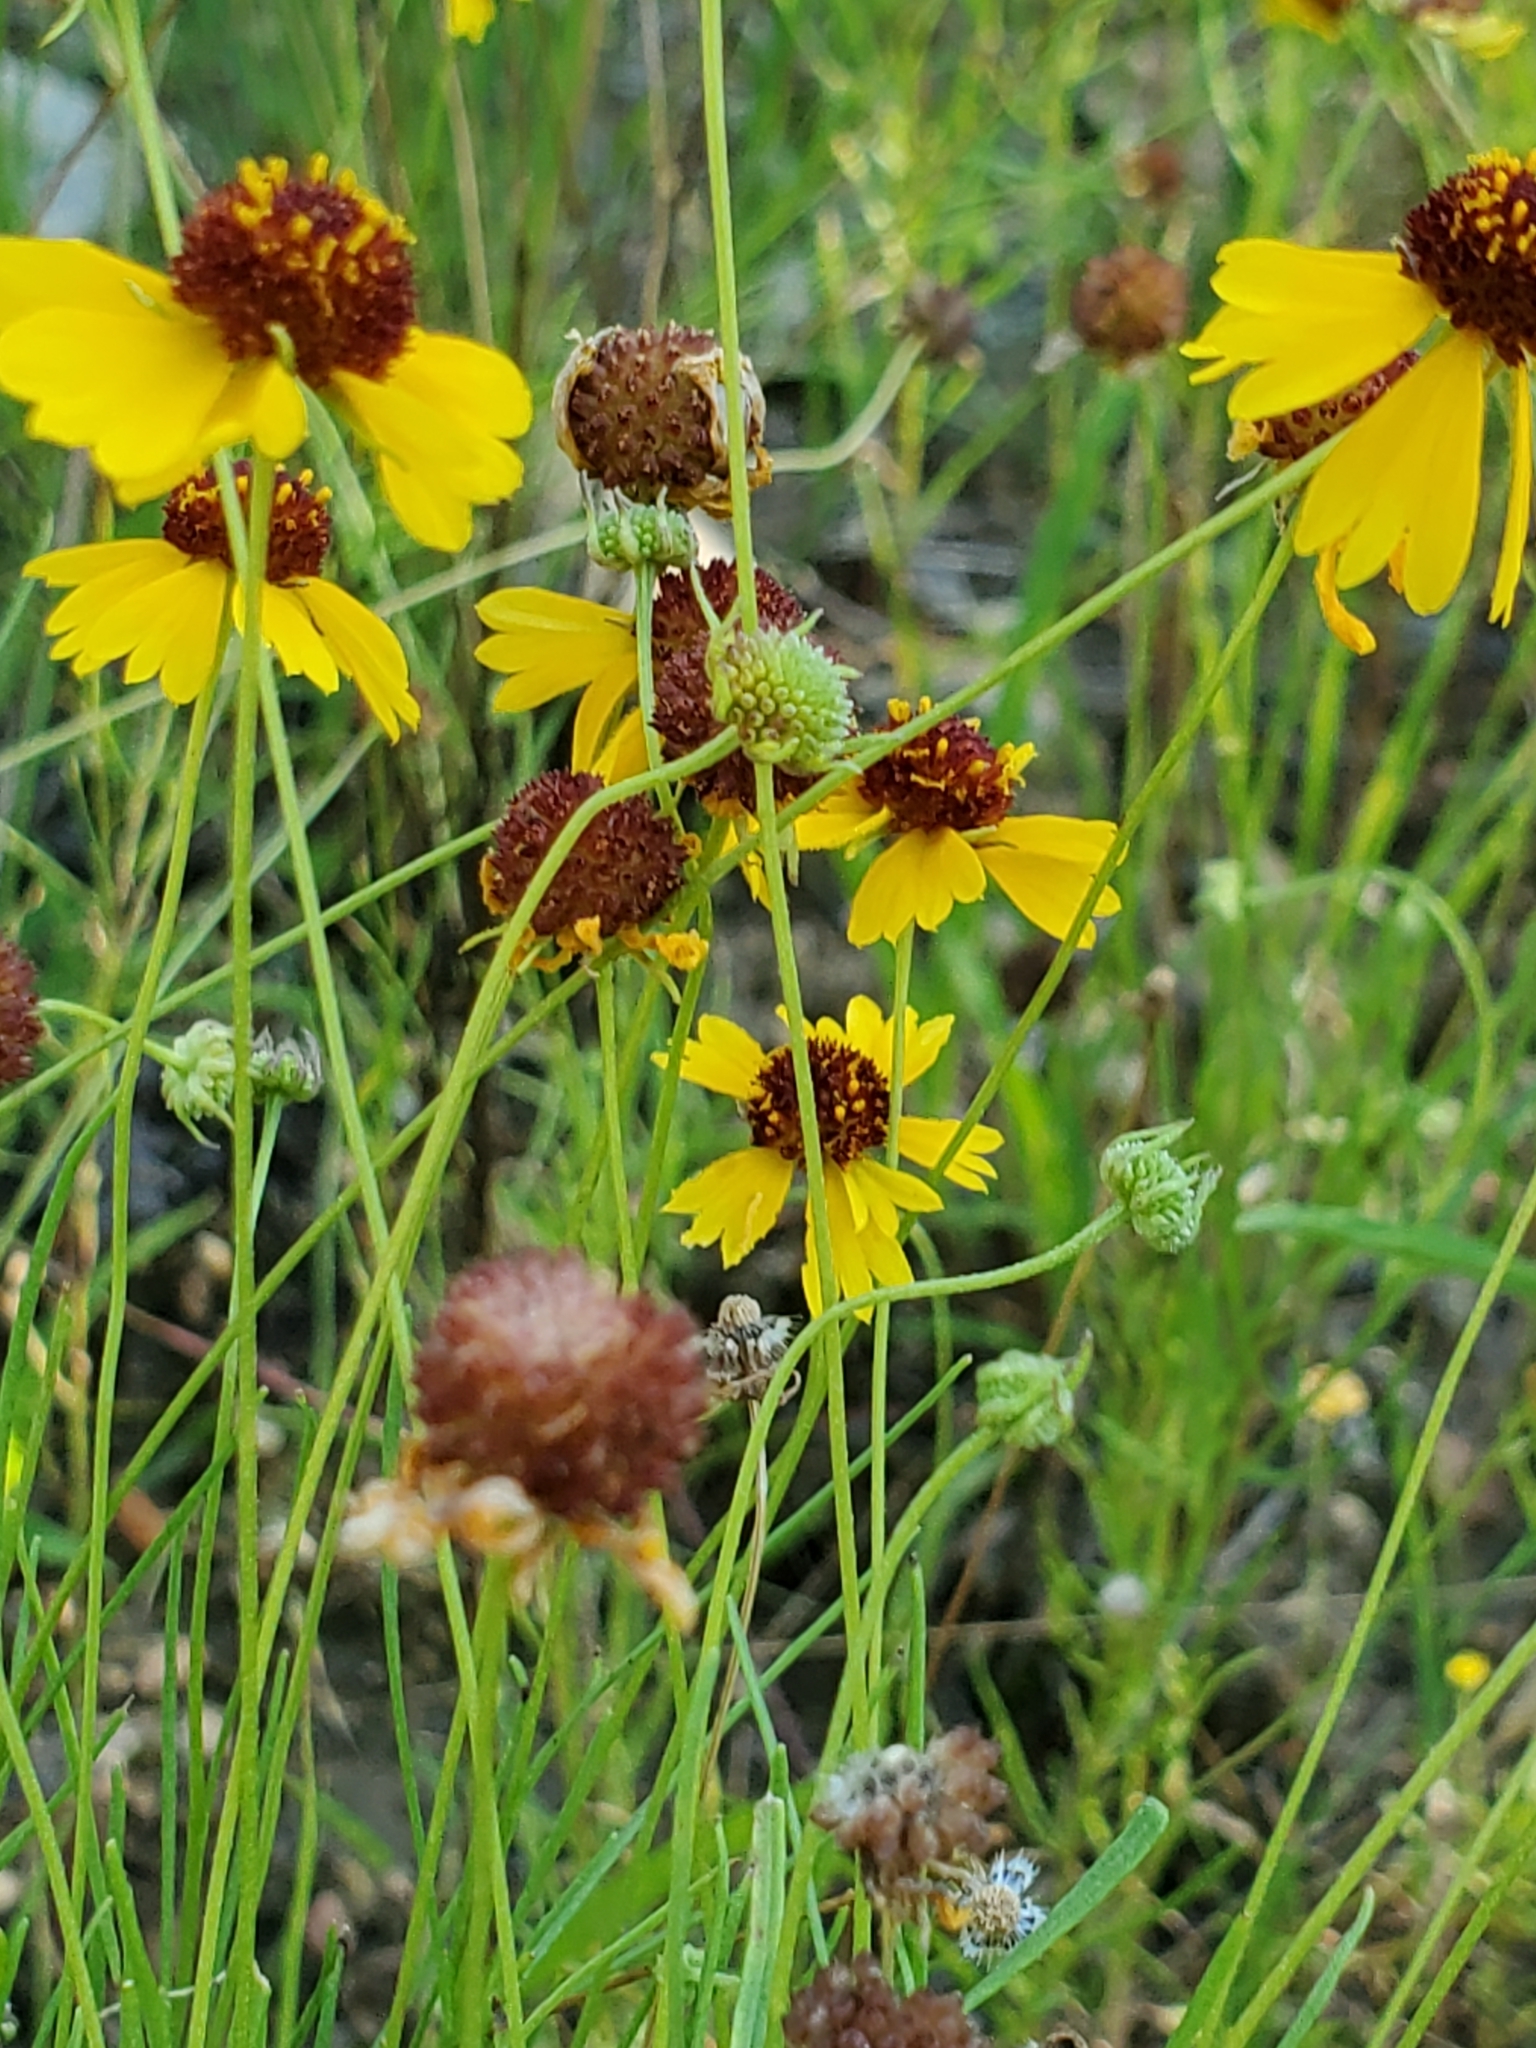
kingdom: Plantae
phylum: Tracheophyta
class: Magnoliopsida
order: Asterales
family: Asteraceae
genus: Helenium
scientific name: Helenium amarum
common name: Bitter sneezeweed
